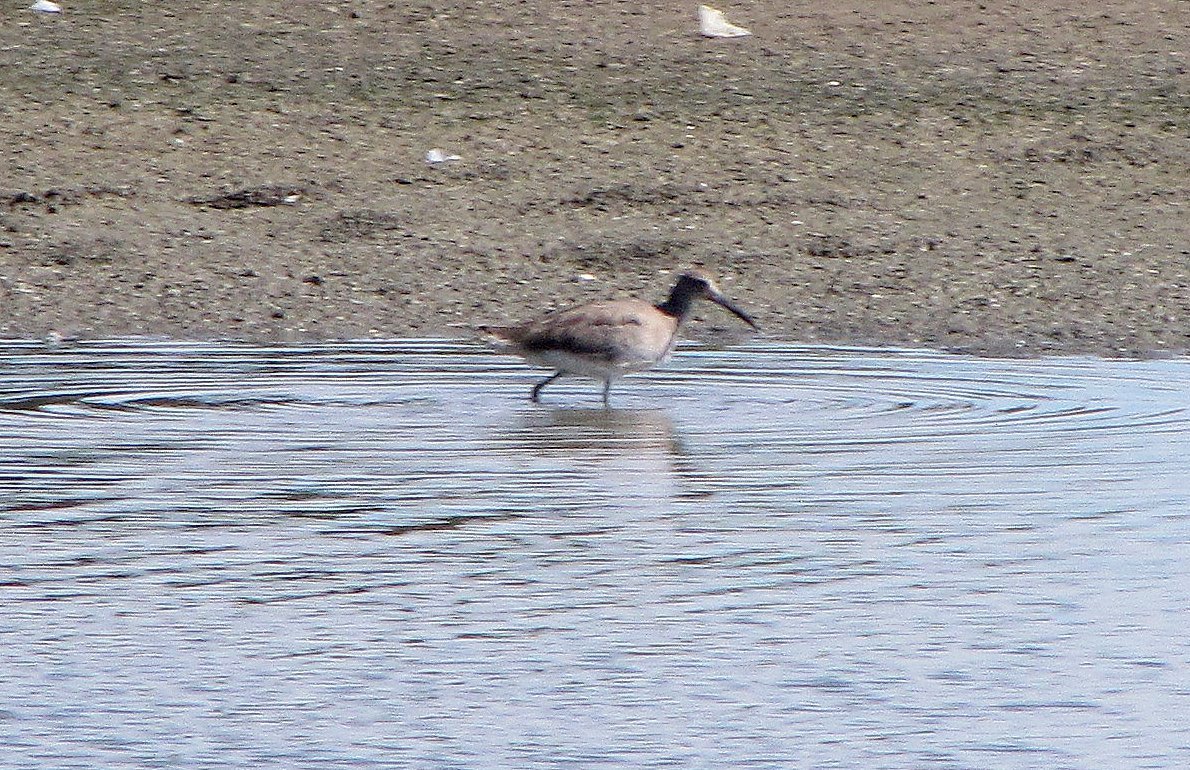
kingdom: Animalia
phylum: Chordata
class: Aves
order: Charadriiformes
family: Scolopacidae
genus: Tringa
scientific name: Tringa semipalmata
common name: Willet
